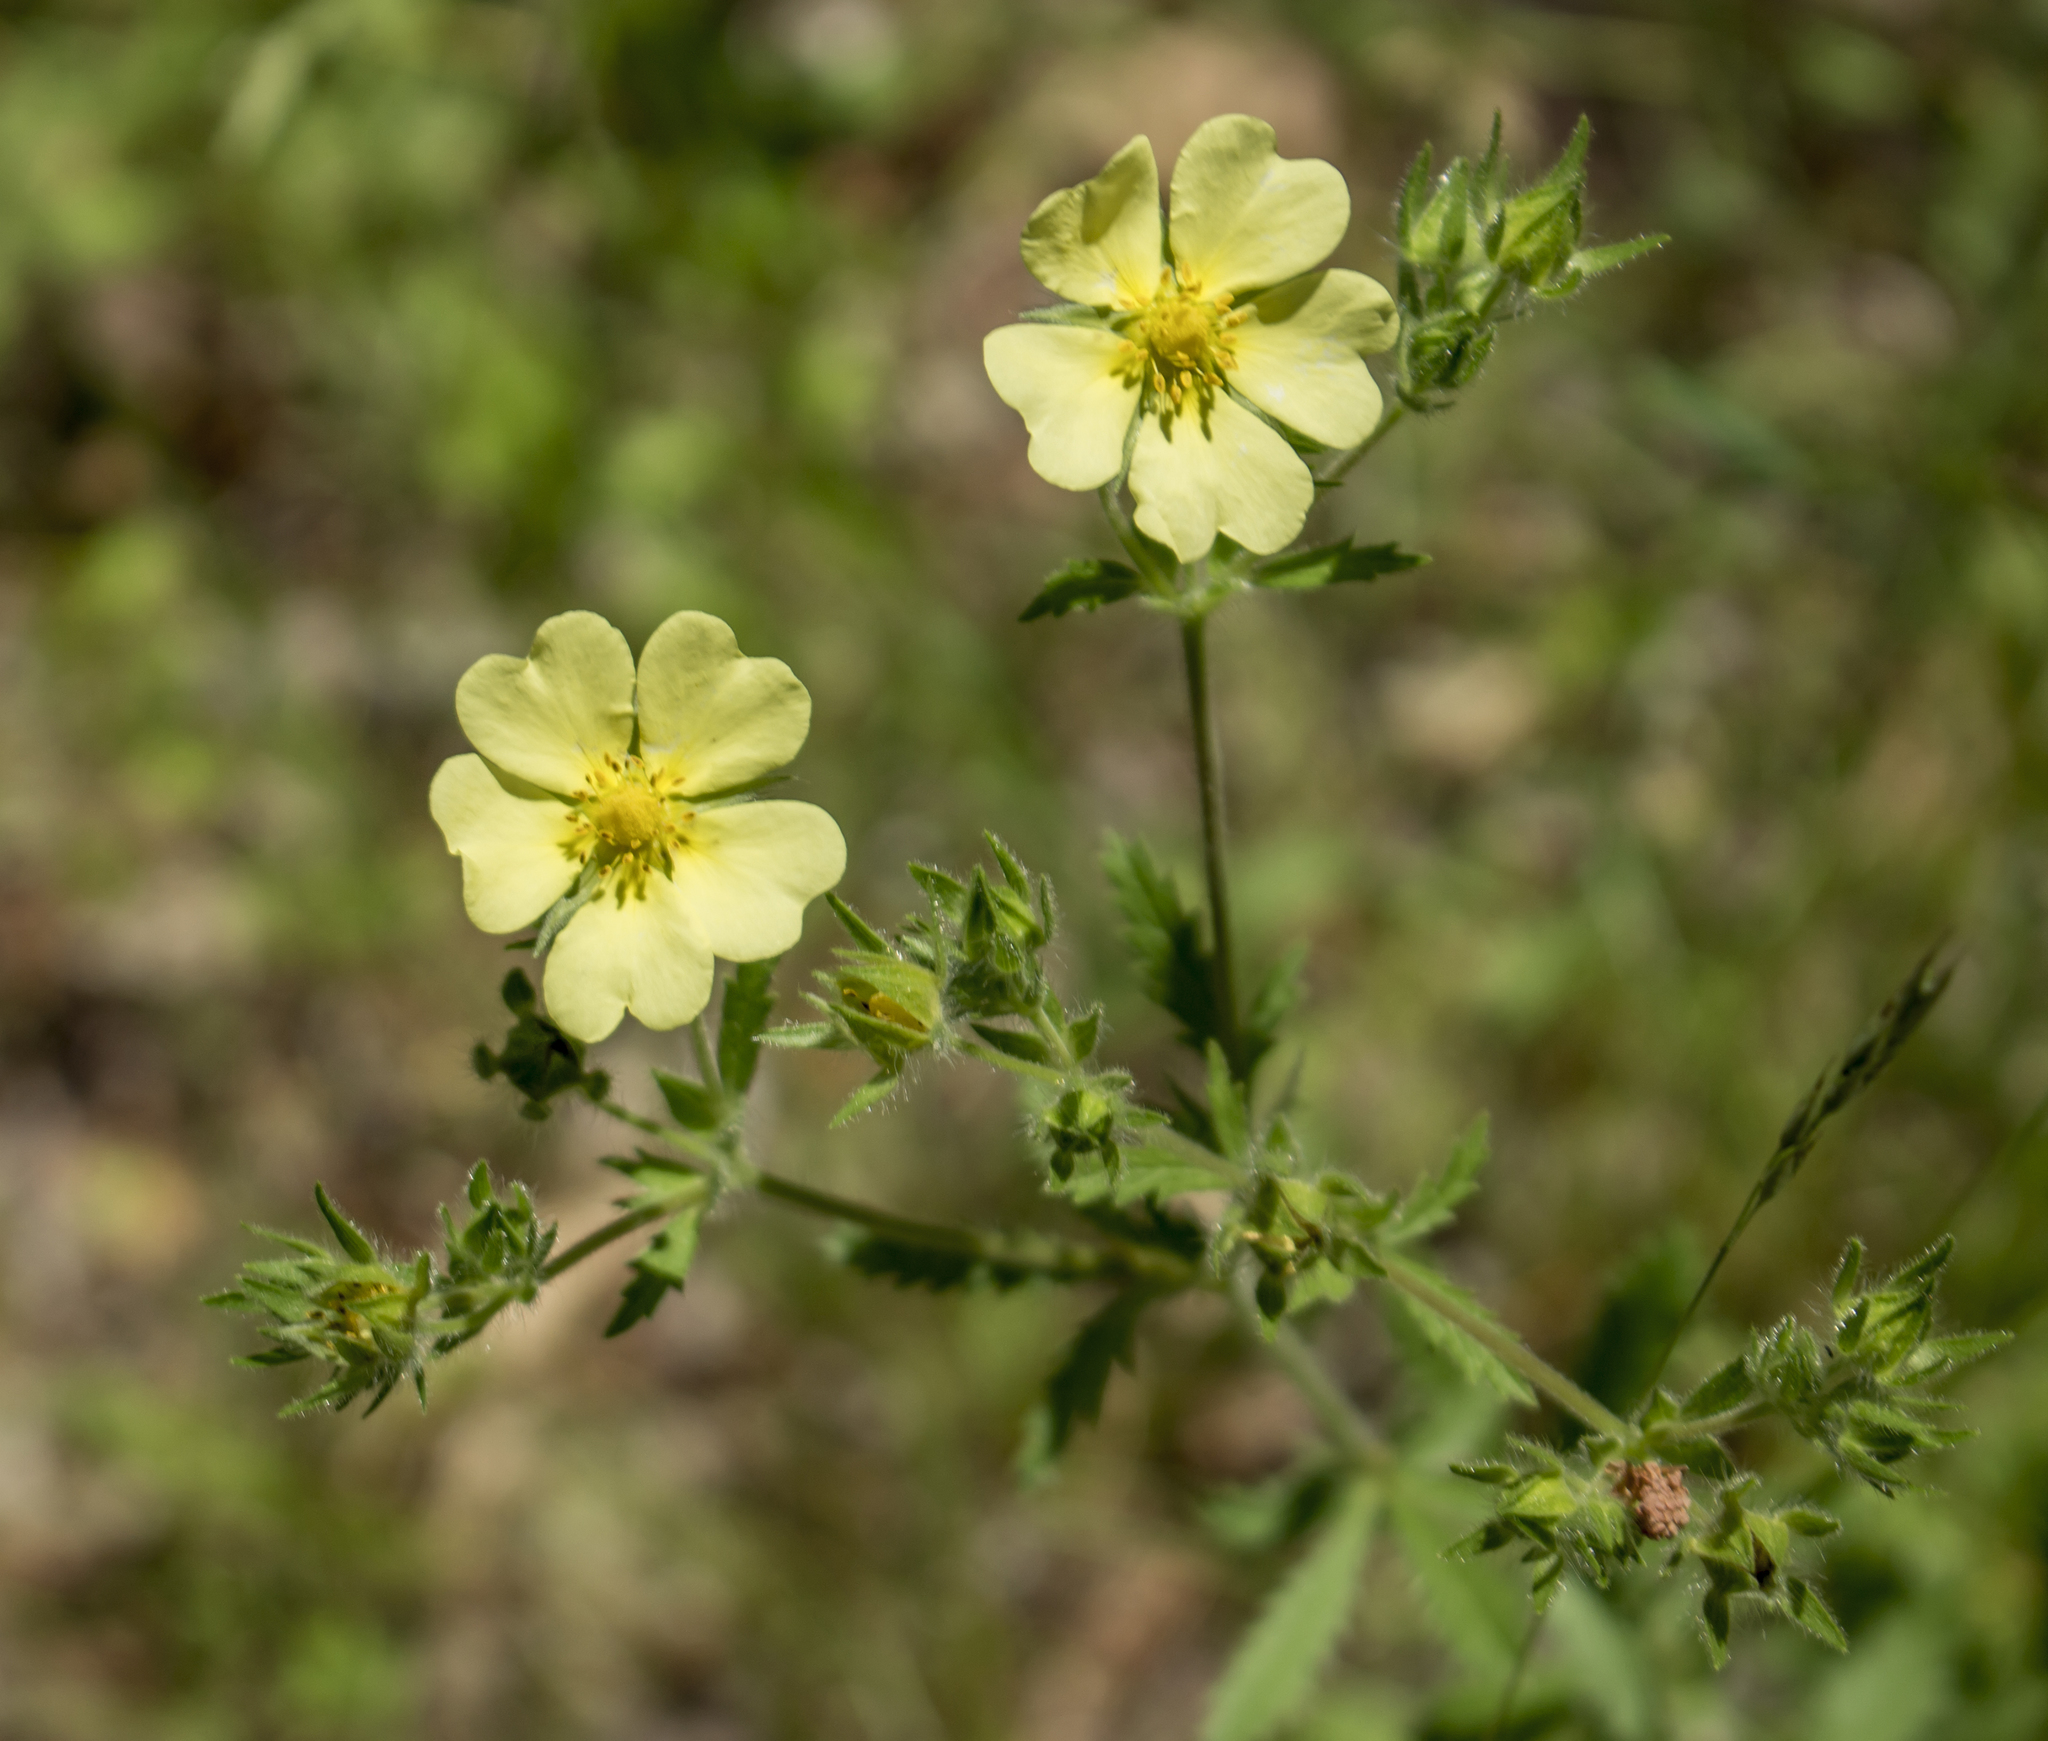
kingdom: Plantae
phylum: Tracheophyta
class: Magnoliopsida
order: Rosales
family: Rosaceae
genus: Potentilla
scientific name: Potentilla recta
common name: Sulphur cinquefoil
